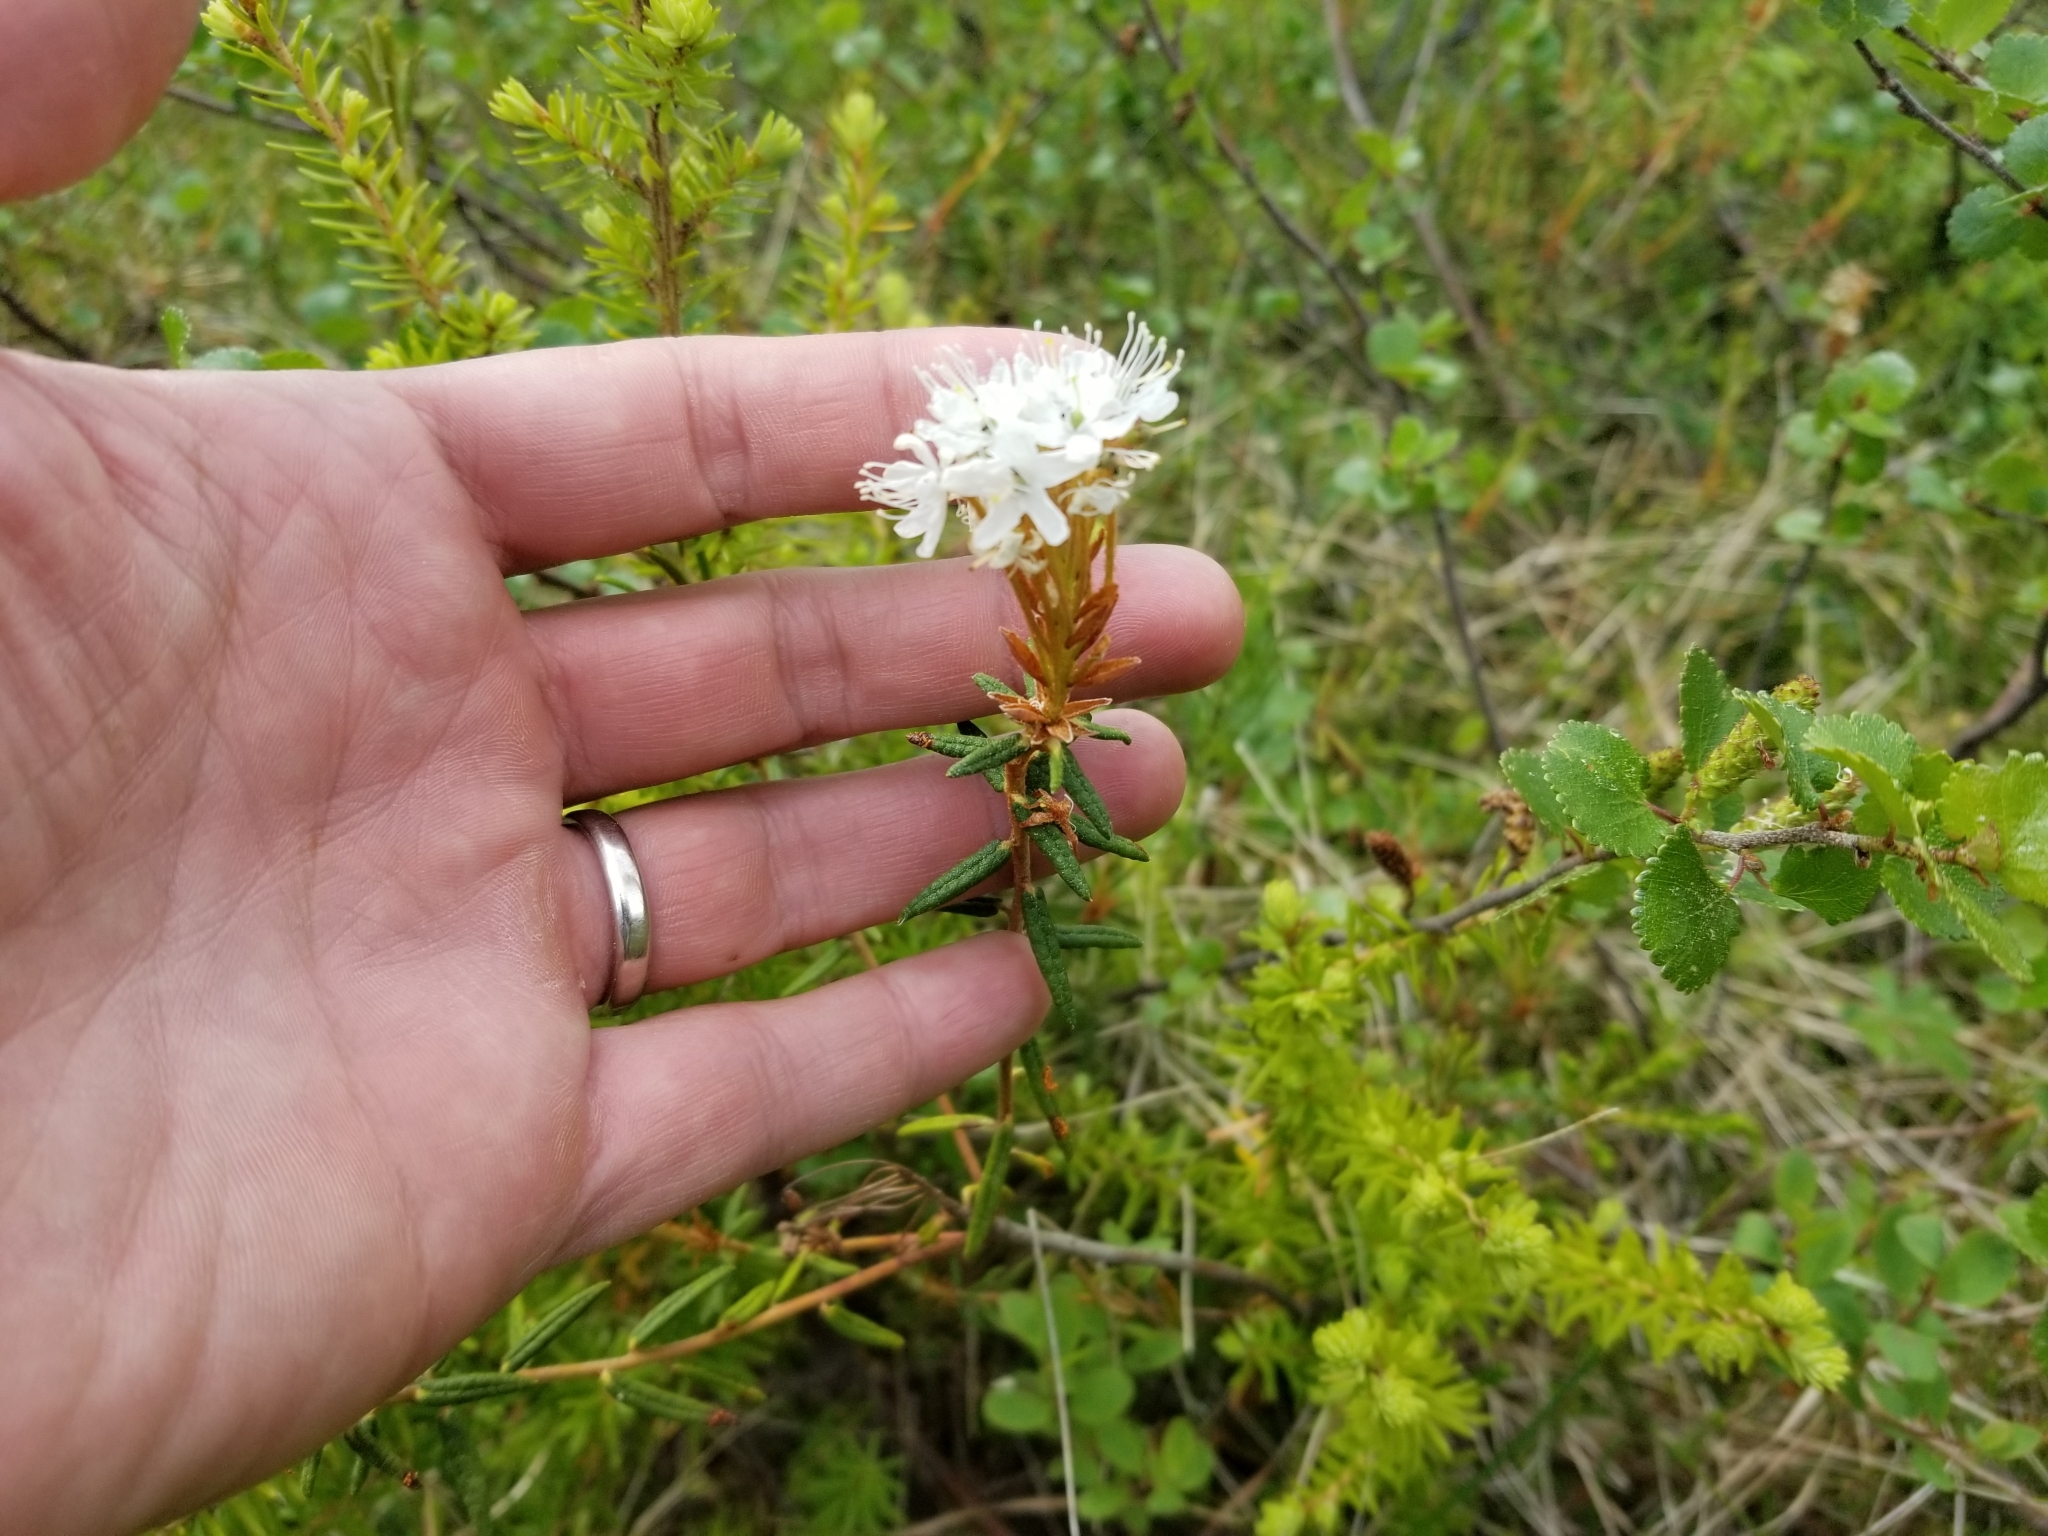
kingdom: Plantae
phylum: Tracheophyta
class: Magnoliopsida
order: Ericales
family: Ericaceae
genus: Rhododendron
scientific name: Rhododendron groenlandicum
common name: Bog labrador tea
